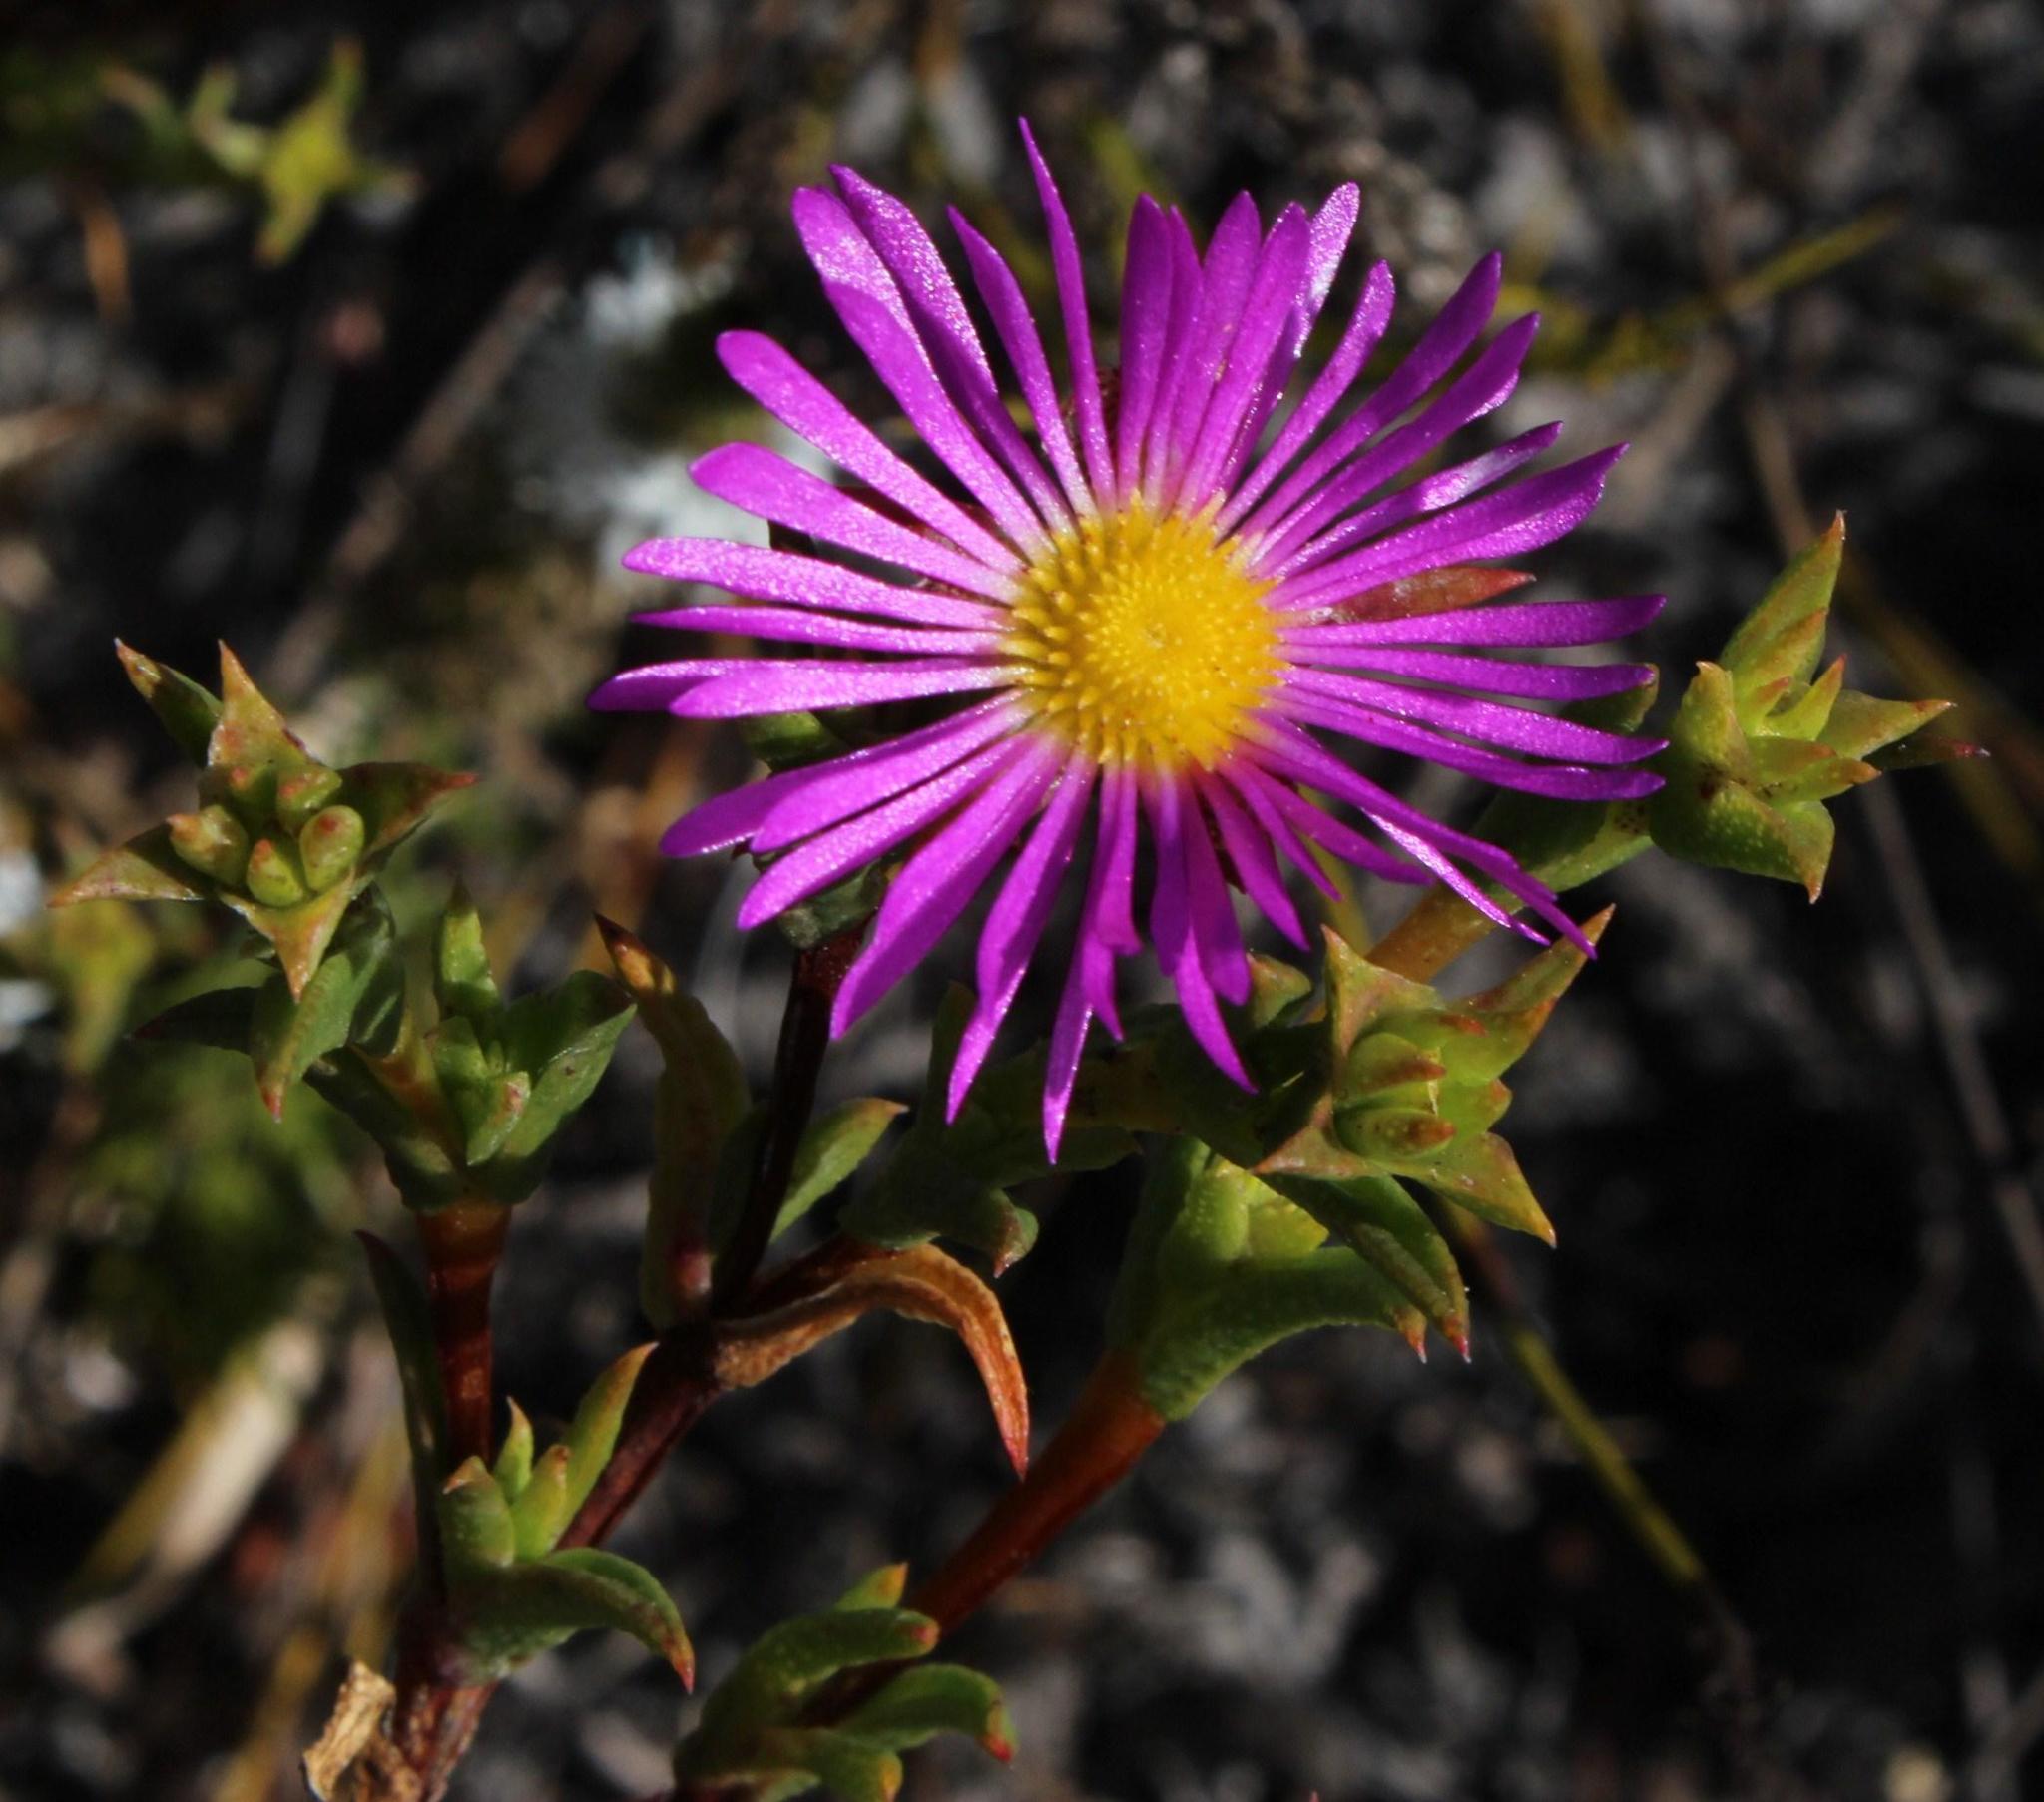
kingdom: Plantae
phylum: Tracheophyta
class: Magnoliopsida
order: Caryophyllales
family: Aizoaceae
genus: Erepsia
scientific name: Erepsia bracteata
